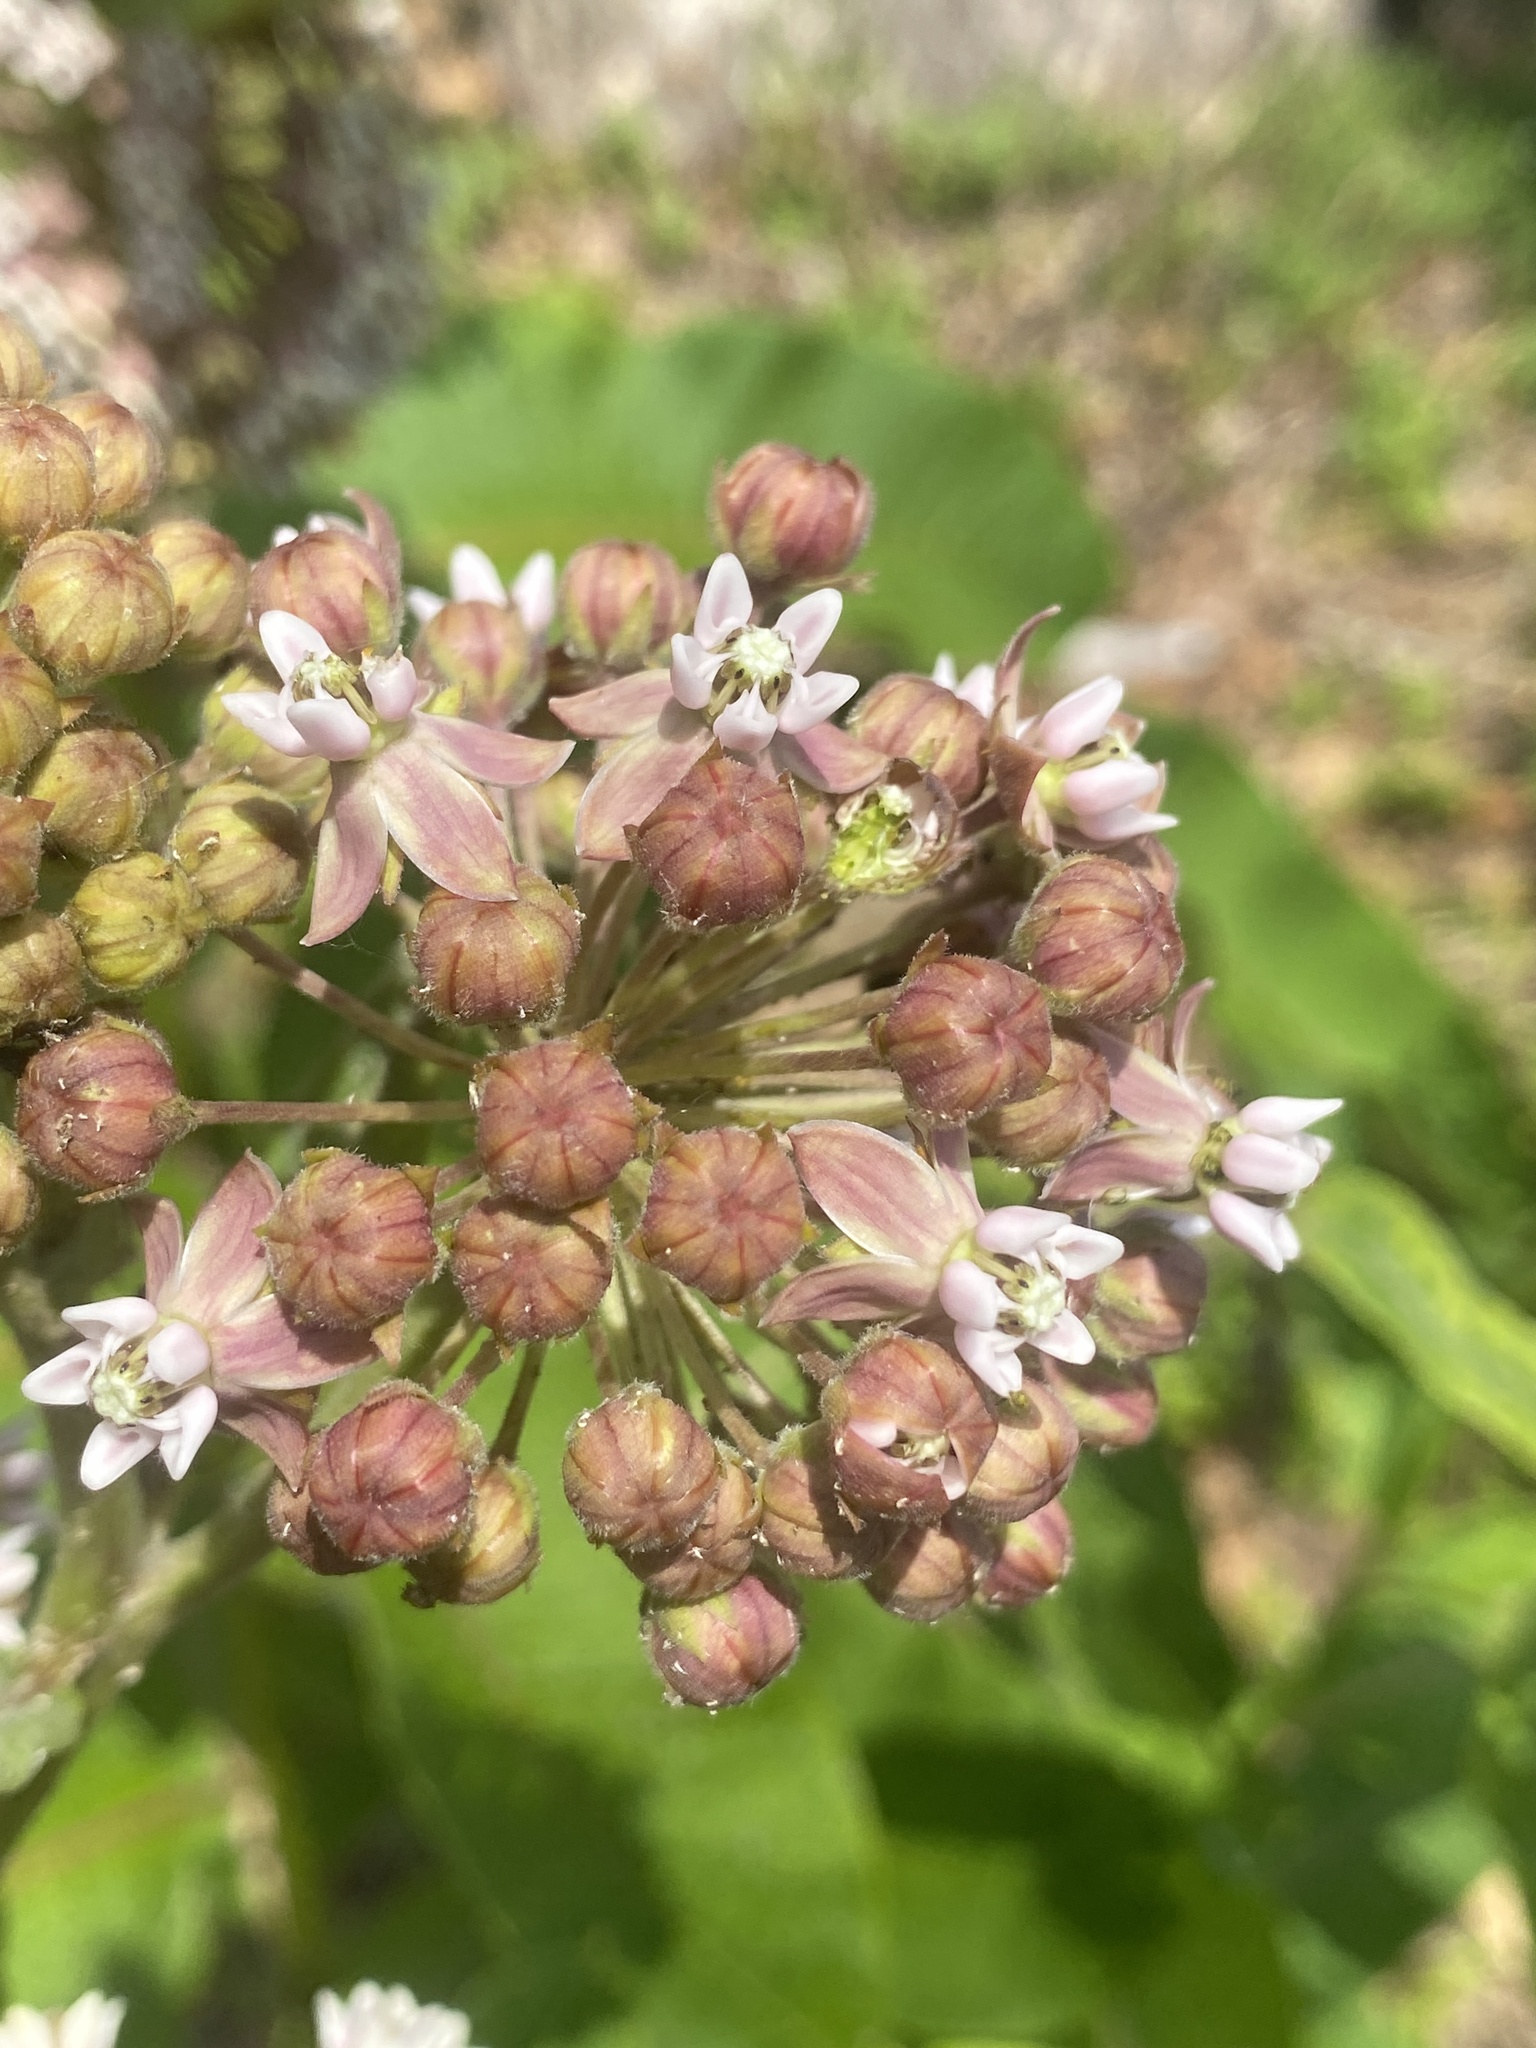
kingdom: Plantae
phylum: Tracheophyta
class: Magnoliopsida
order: Gentianales
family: Apocynaceae
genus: Asclepias
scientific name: Asclepias syriaca
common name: Common milkweed
